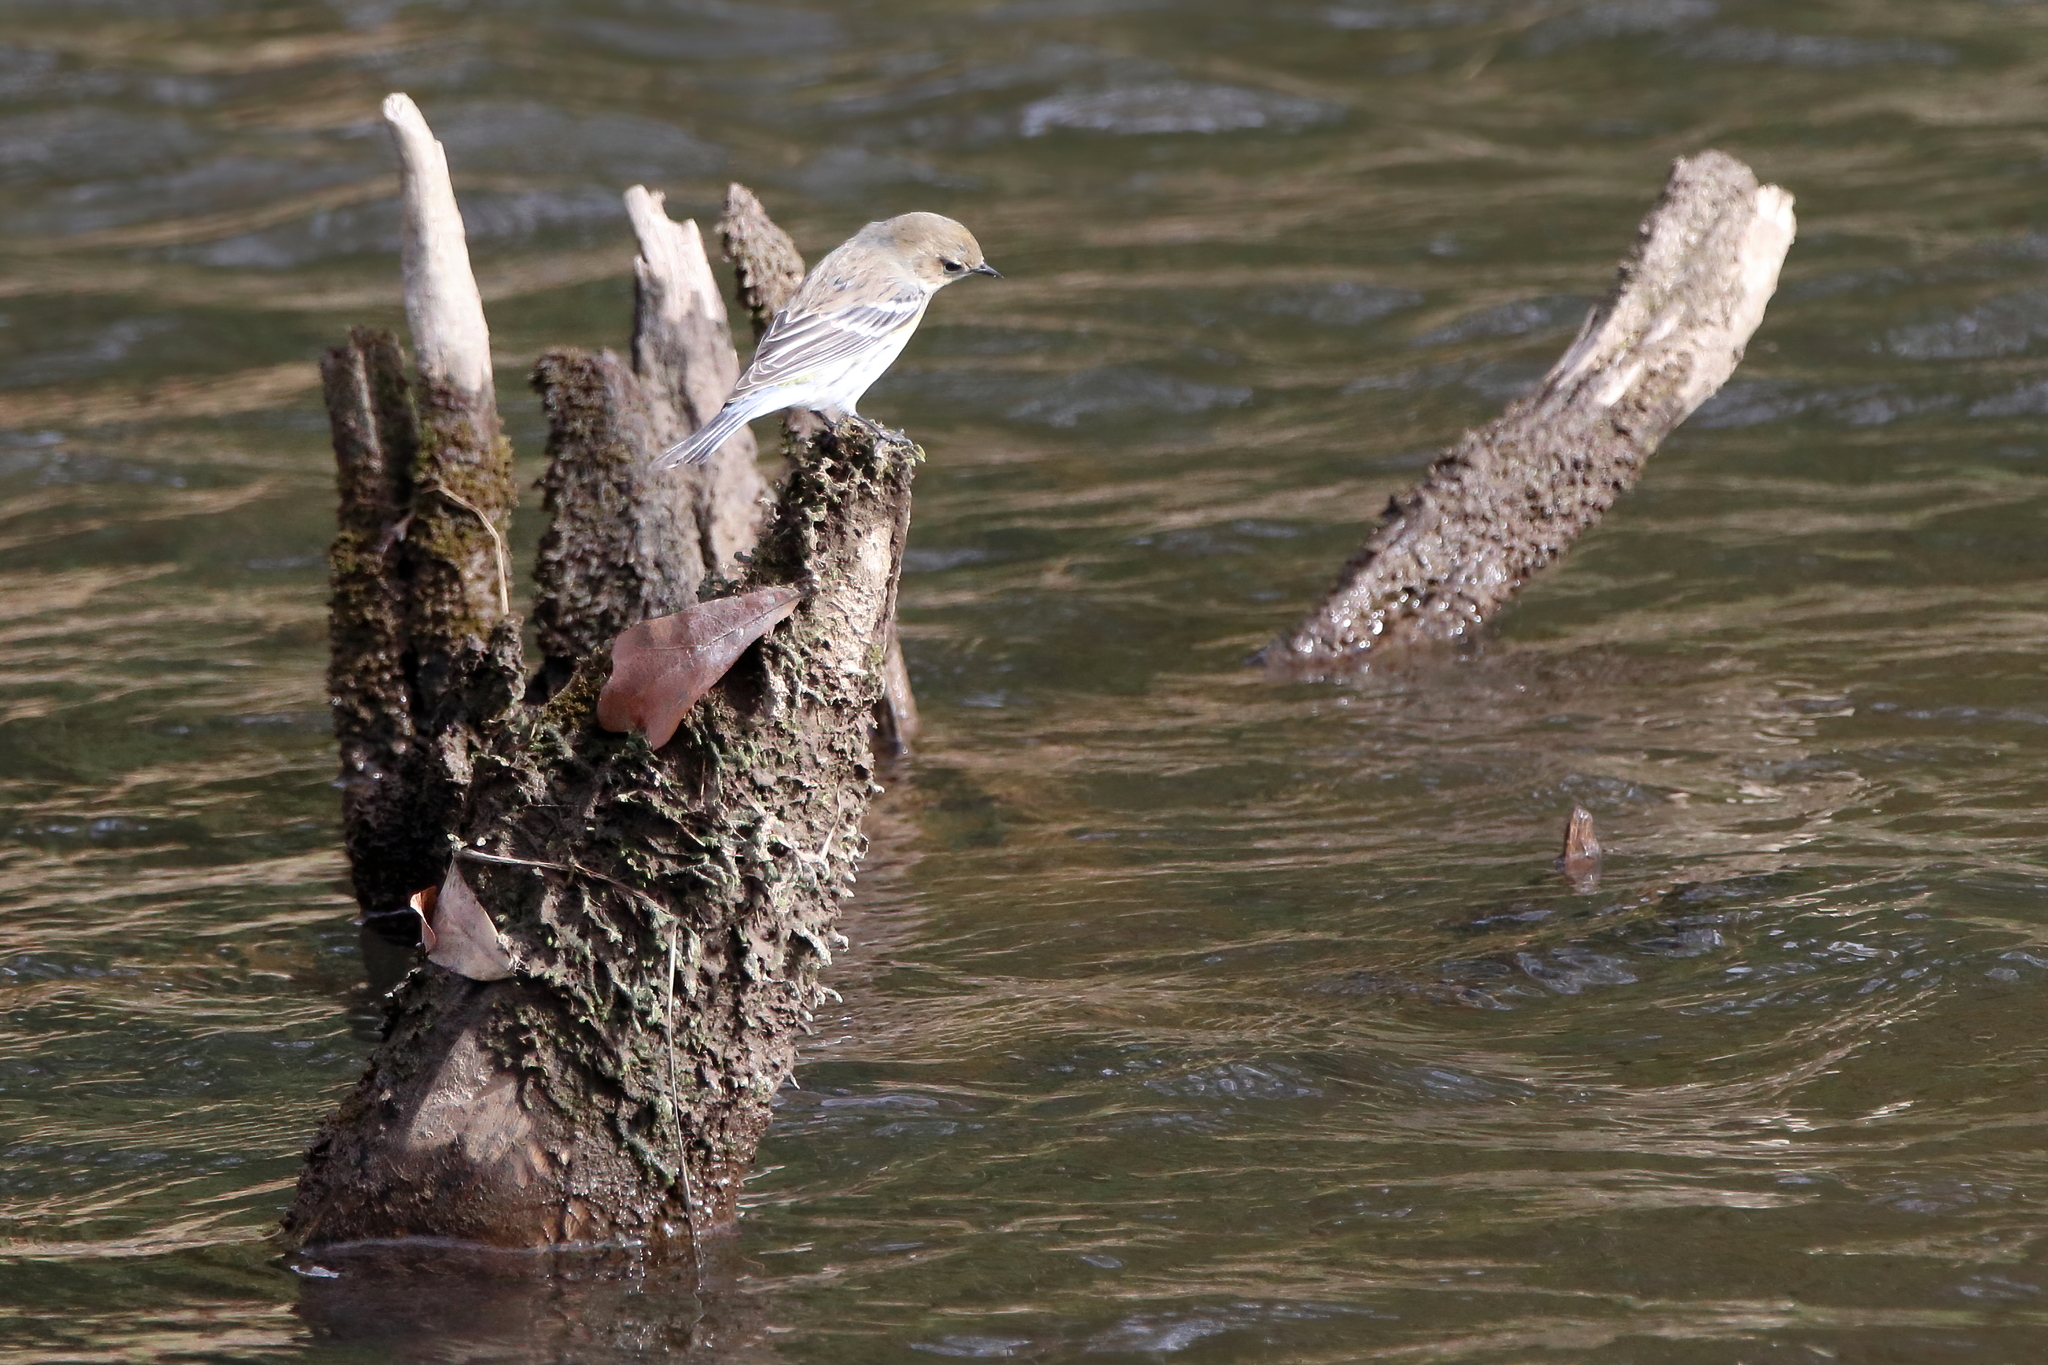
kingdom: Animalia
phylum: Chordata
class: Aves
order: Passeriformes
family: Parulidae
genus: Setophaga
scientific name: Setophaga coronata
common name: Myrtle warbler
